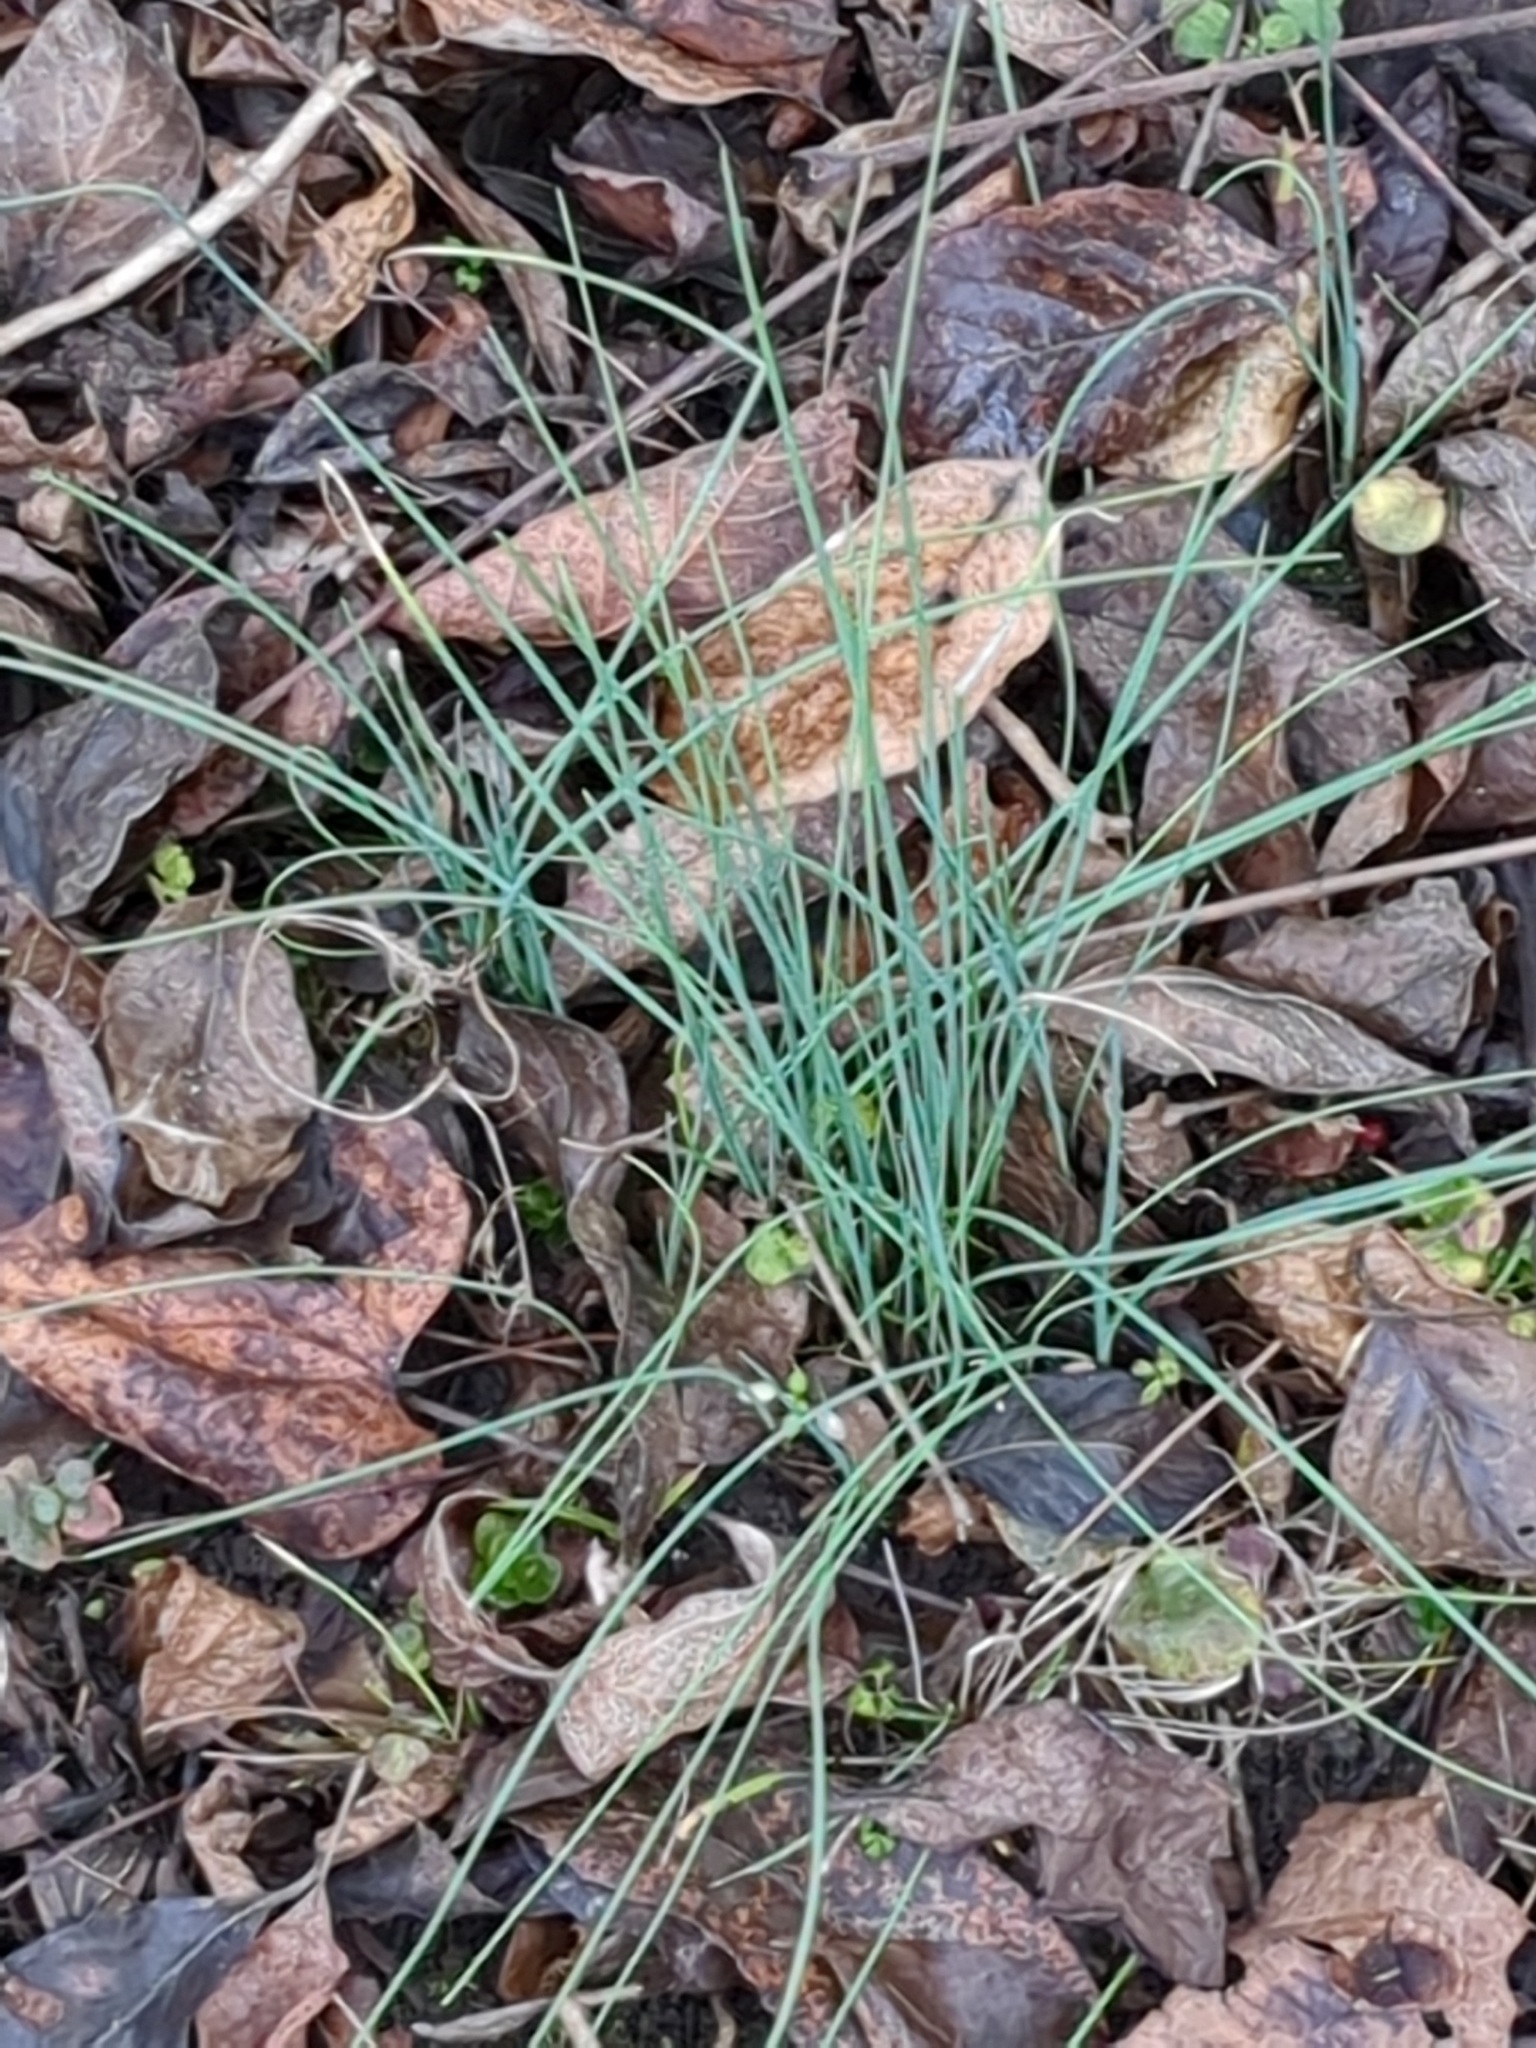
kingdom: Plantae
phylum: Tracheophyta
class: Liliopsida
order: Asparagales
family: Amaryllidaceae
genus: Allium
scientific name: Allium vineale
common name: Crow garlic
